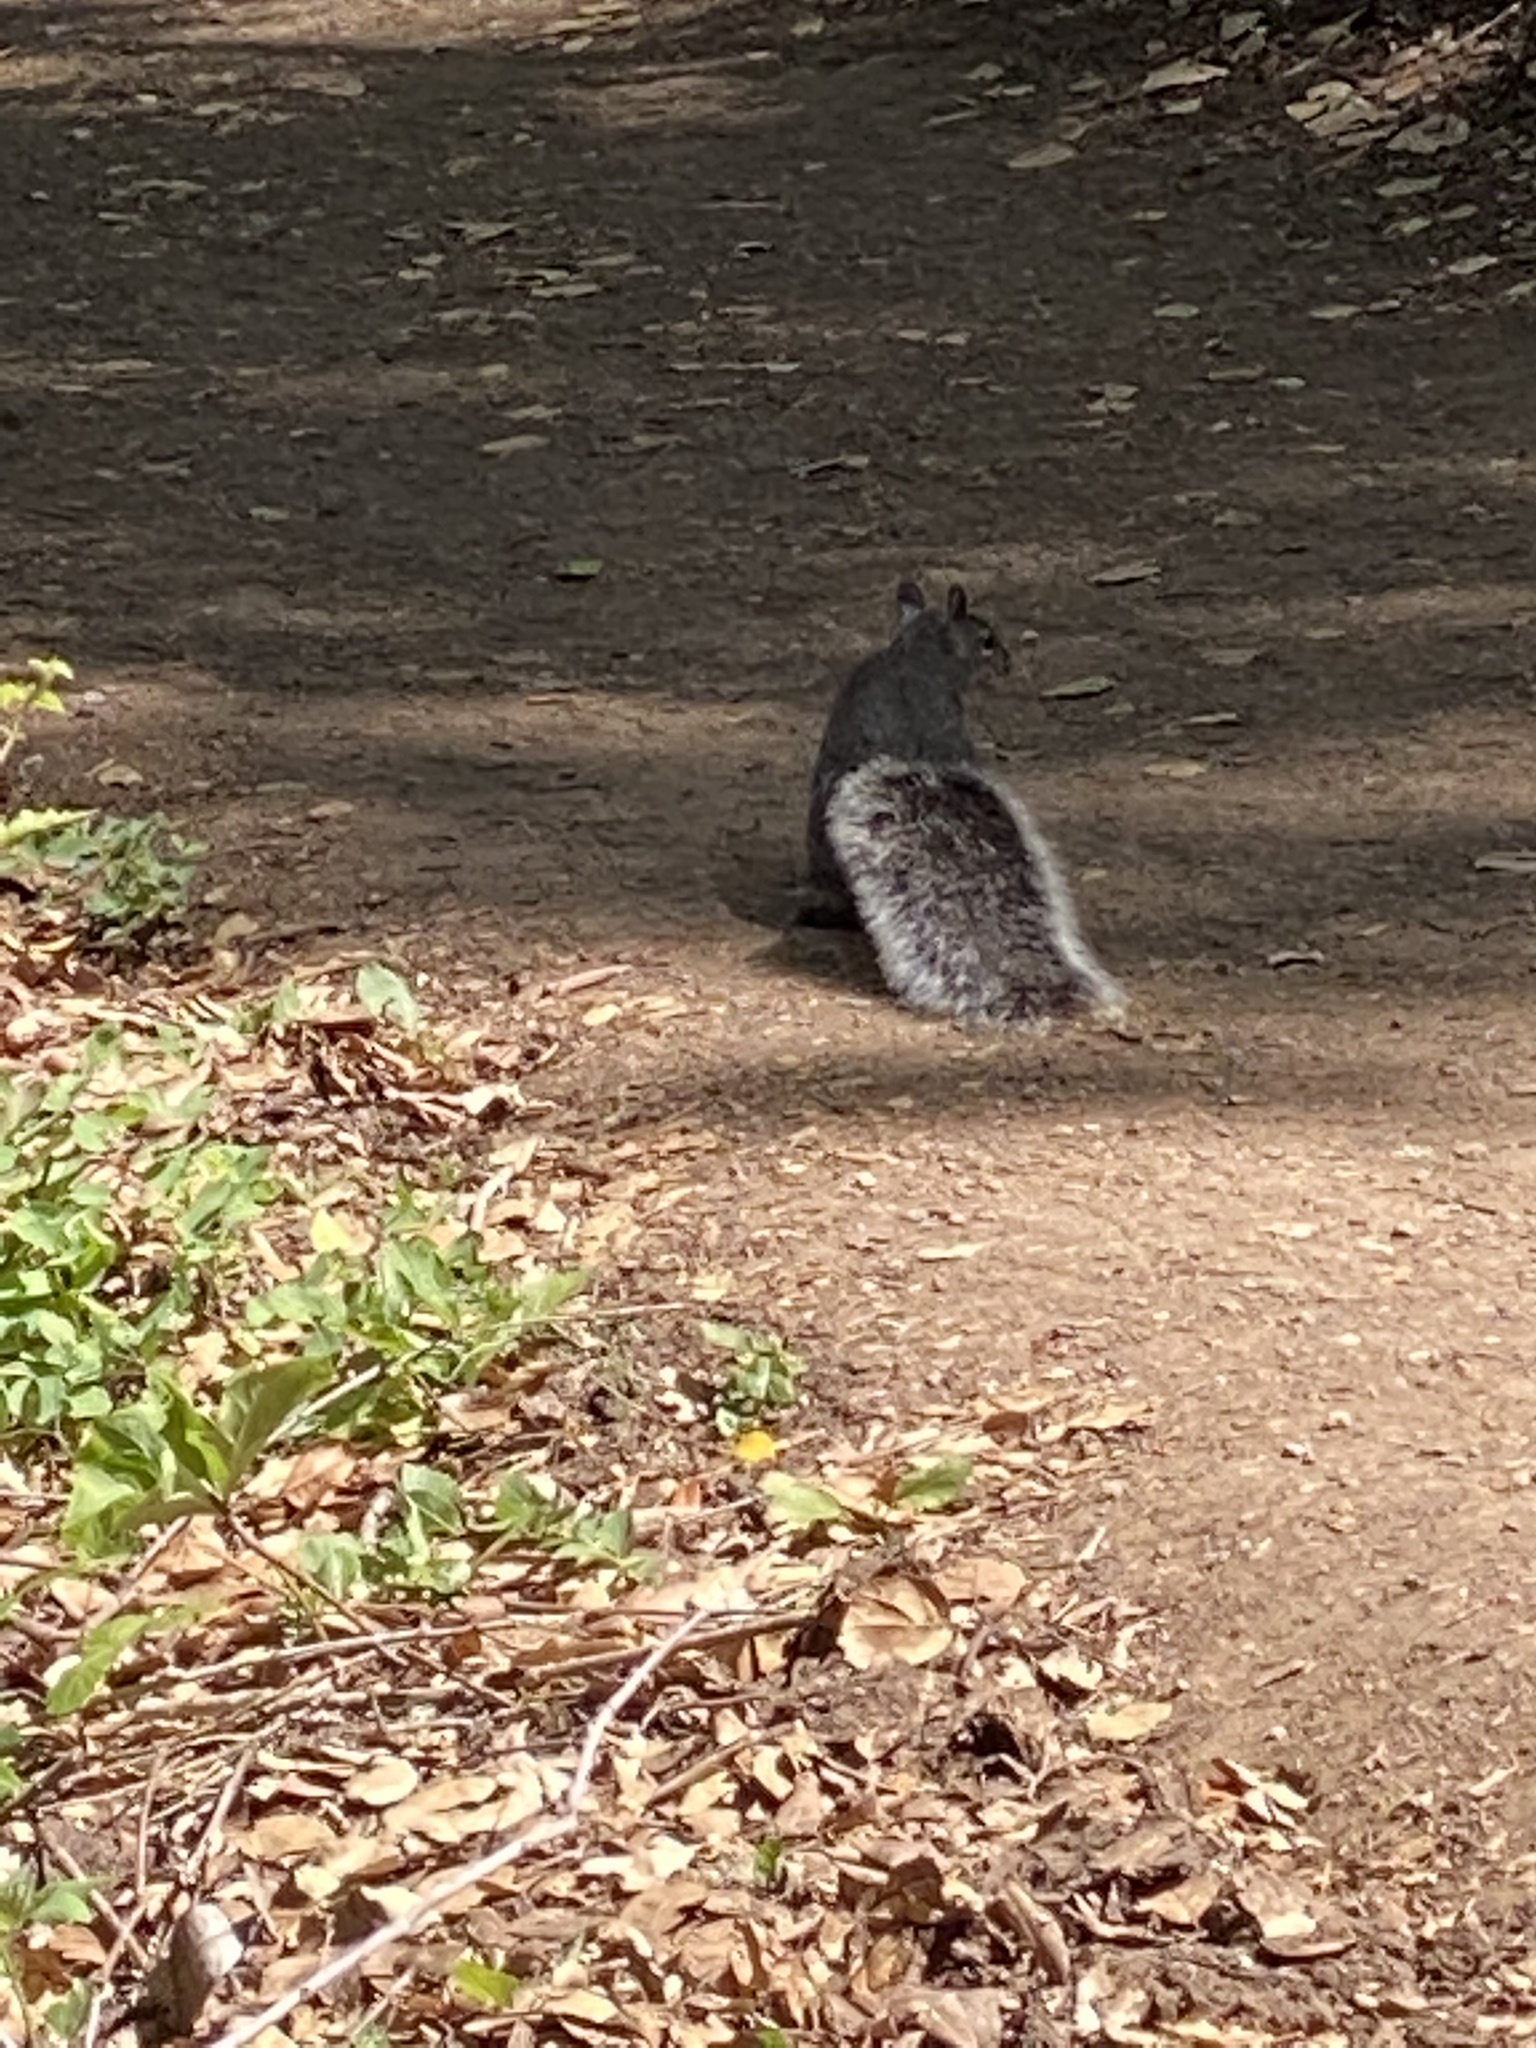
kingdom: Animalia
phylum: Chordata
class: Mammalia
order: Rodentia
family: Sciuridae
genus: Sciurus
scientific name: Sciurus griseus
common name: Western gray squirrel
